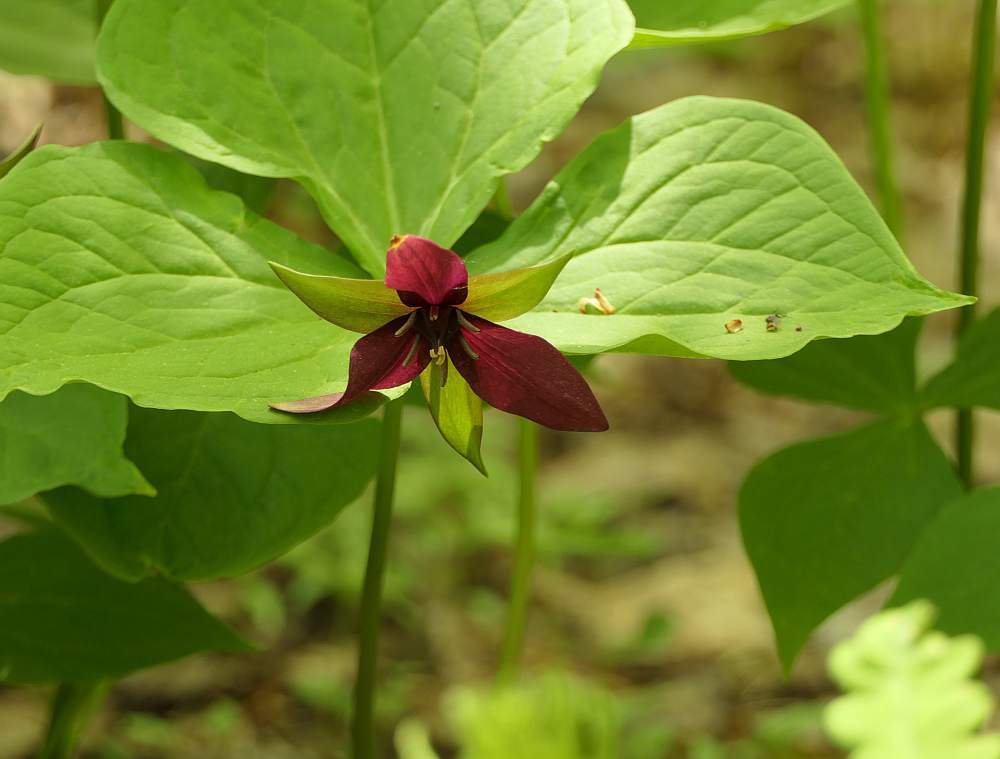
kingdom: Plantae
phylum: Tracheophyta
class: Liliopsida
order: Liliales
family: Melanthiaceae
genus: Trillium
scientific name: Trillium erectum
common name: Purple trillium
